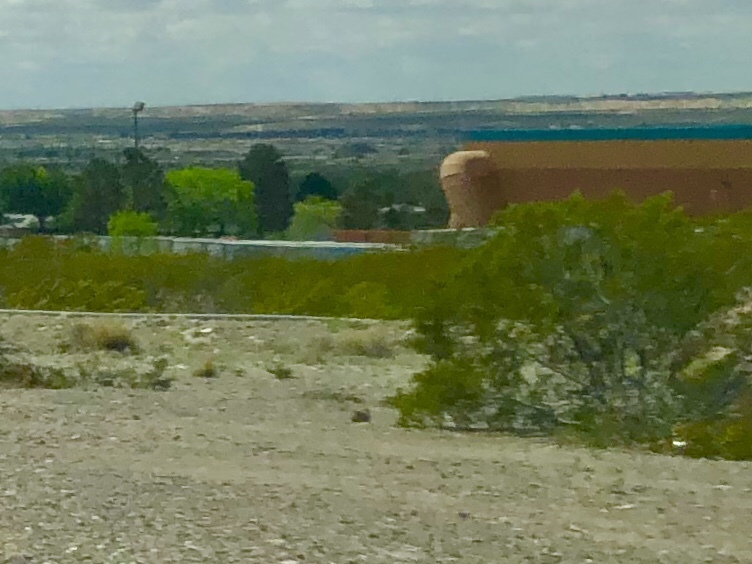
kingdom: Plantae
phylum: Tracheophyta
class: Magnoliopsida
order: Zygophyllales
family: Zygophyllaceae
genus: Larrea
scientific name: Larrea tridentata
